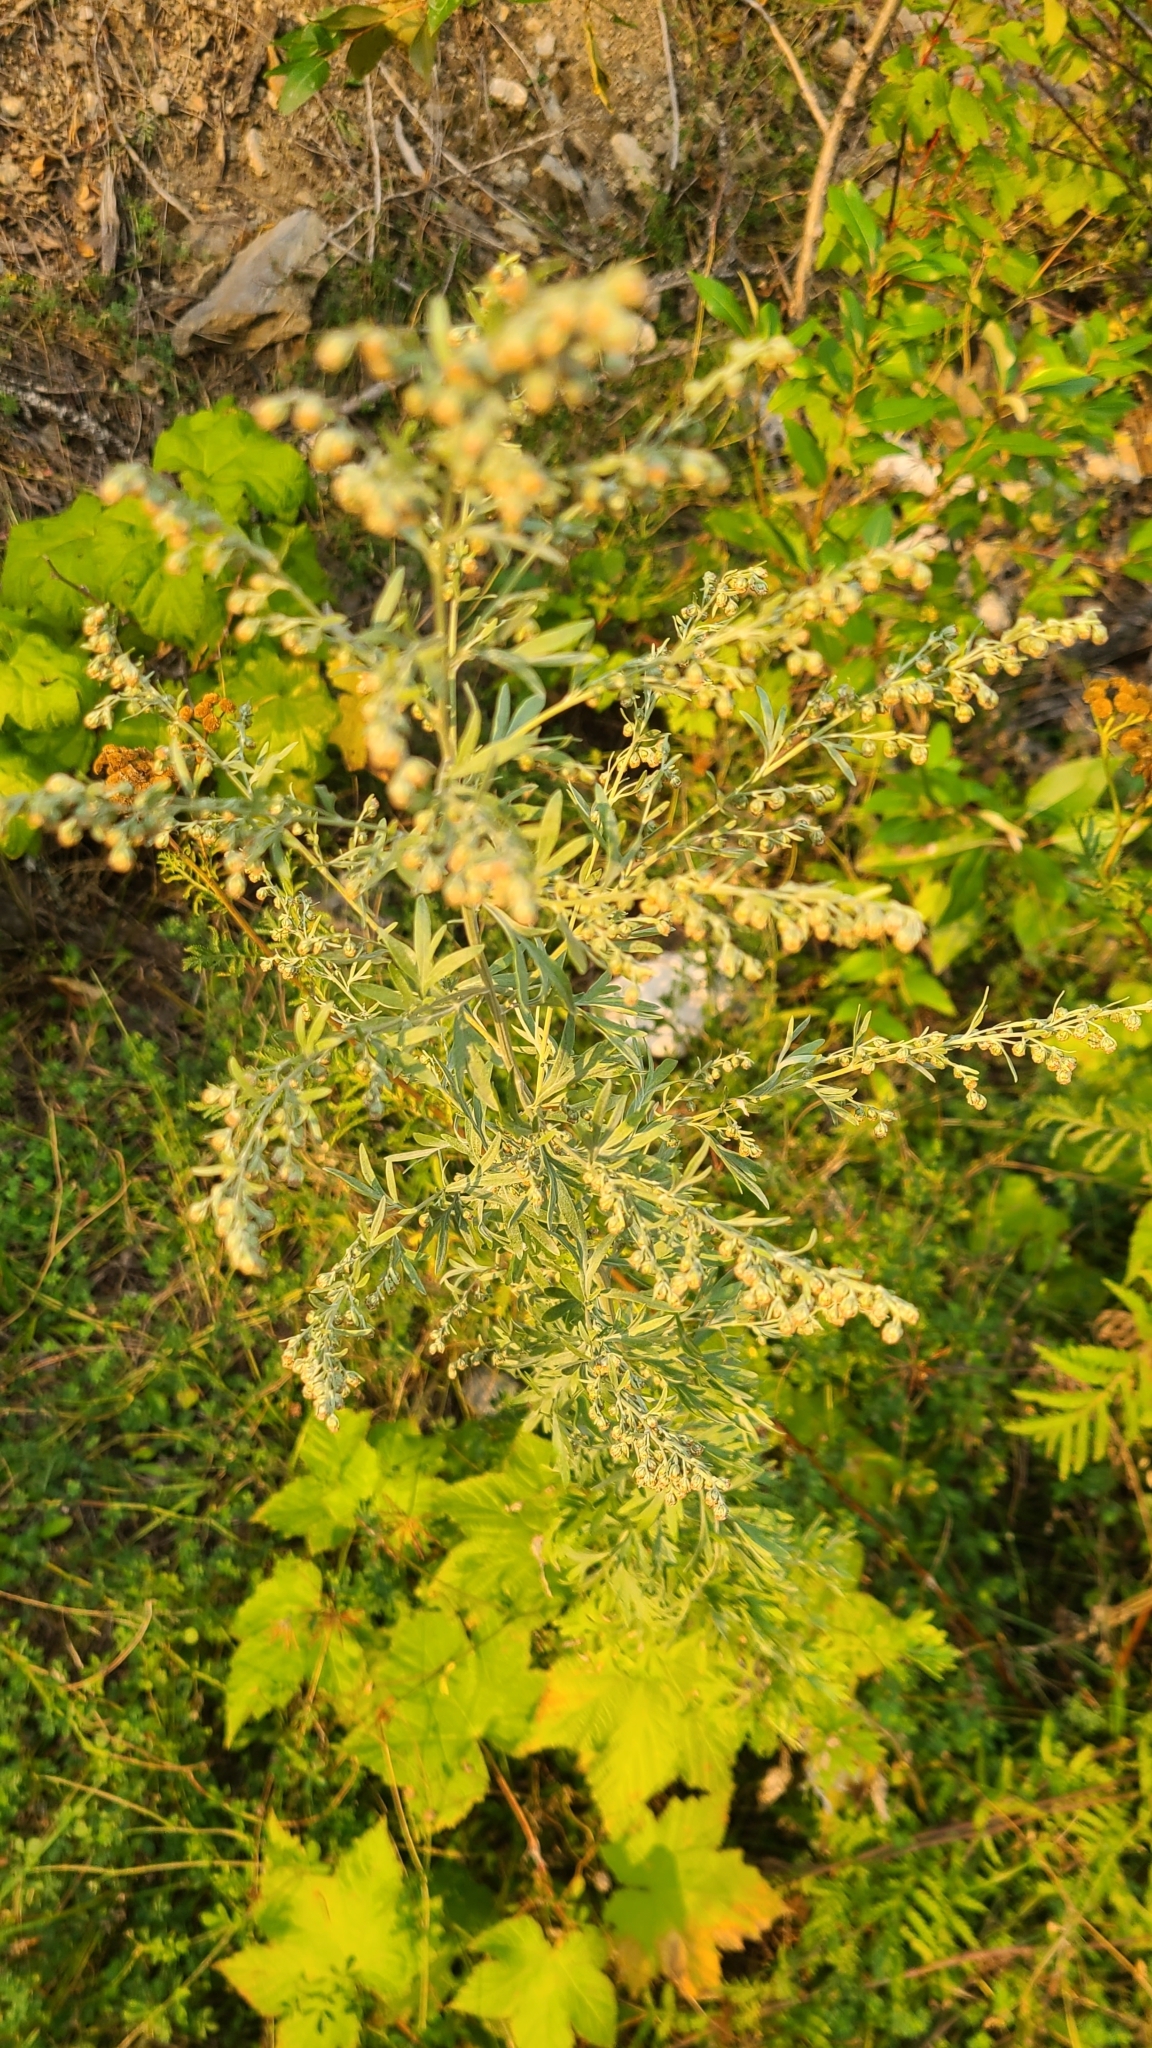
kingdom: Plantae
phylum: Tracheophyta
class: Magnoliopsida
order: Asterales
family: Asteraceae
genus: Artemisia
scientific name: Artemisia absinthium
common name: Wormwood
